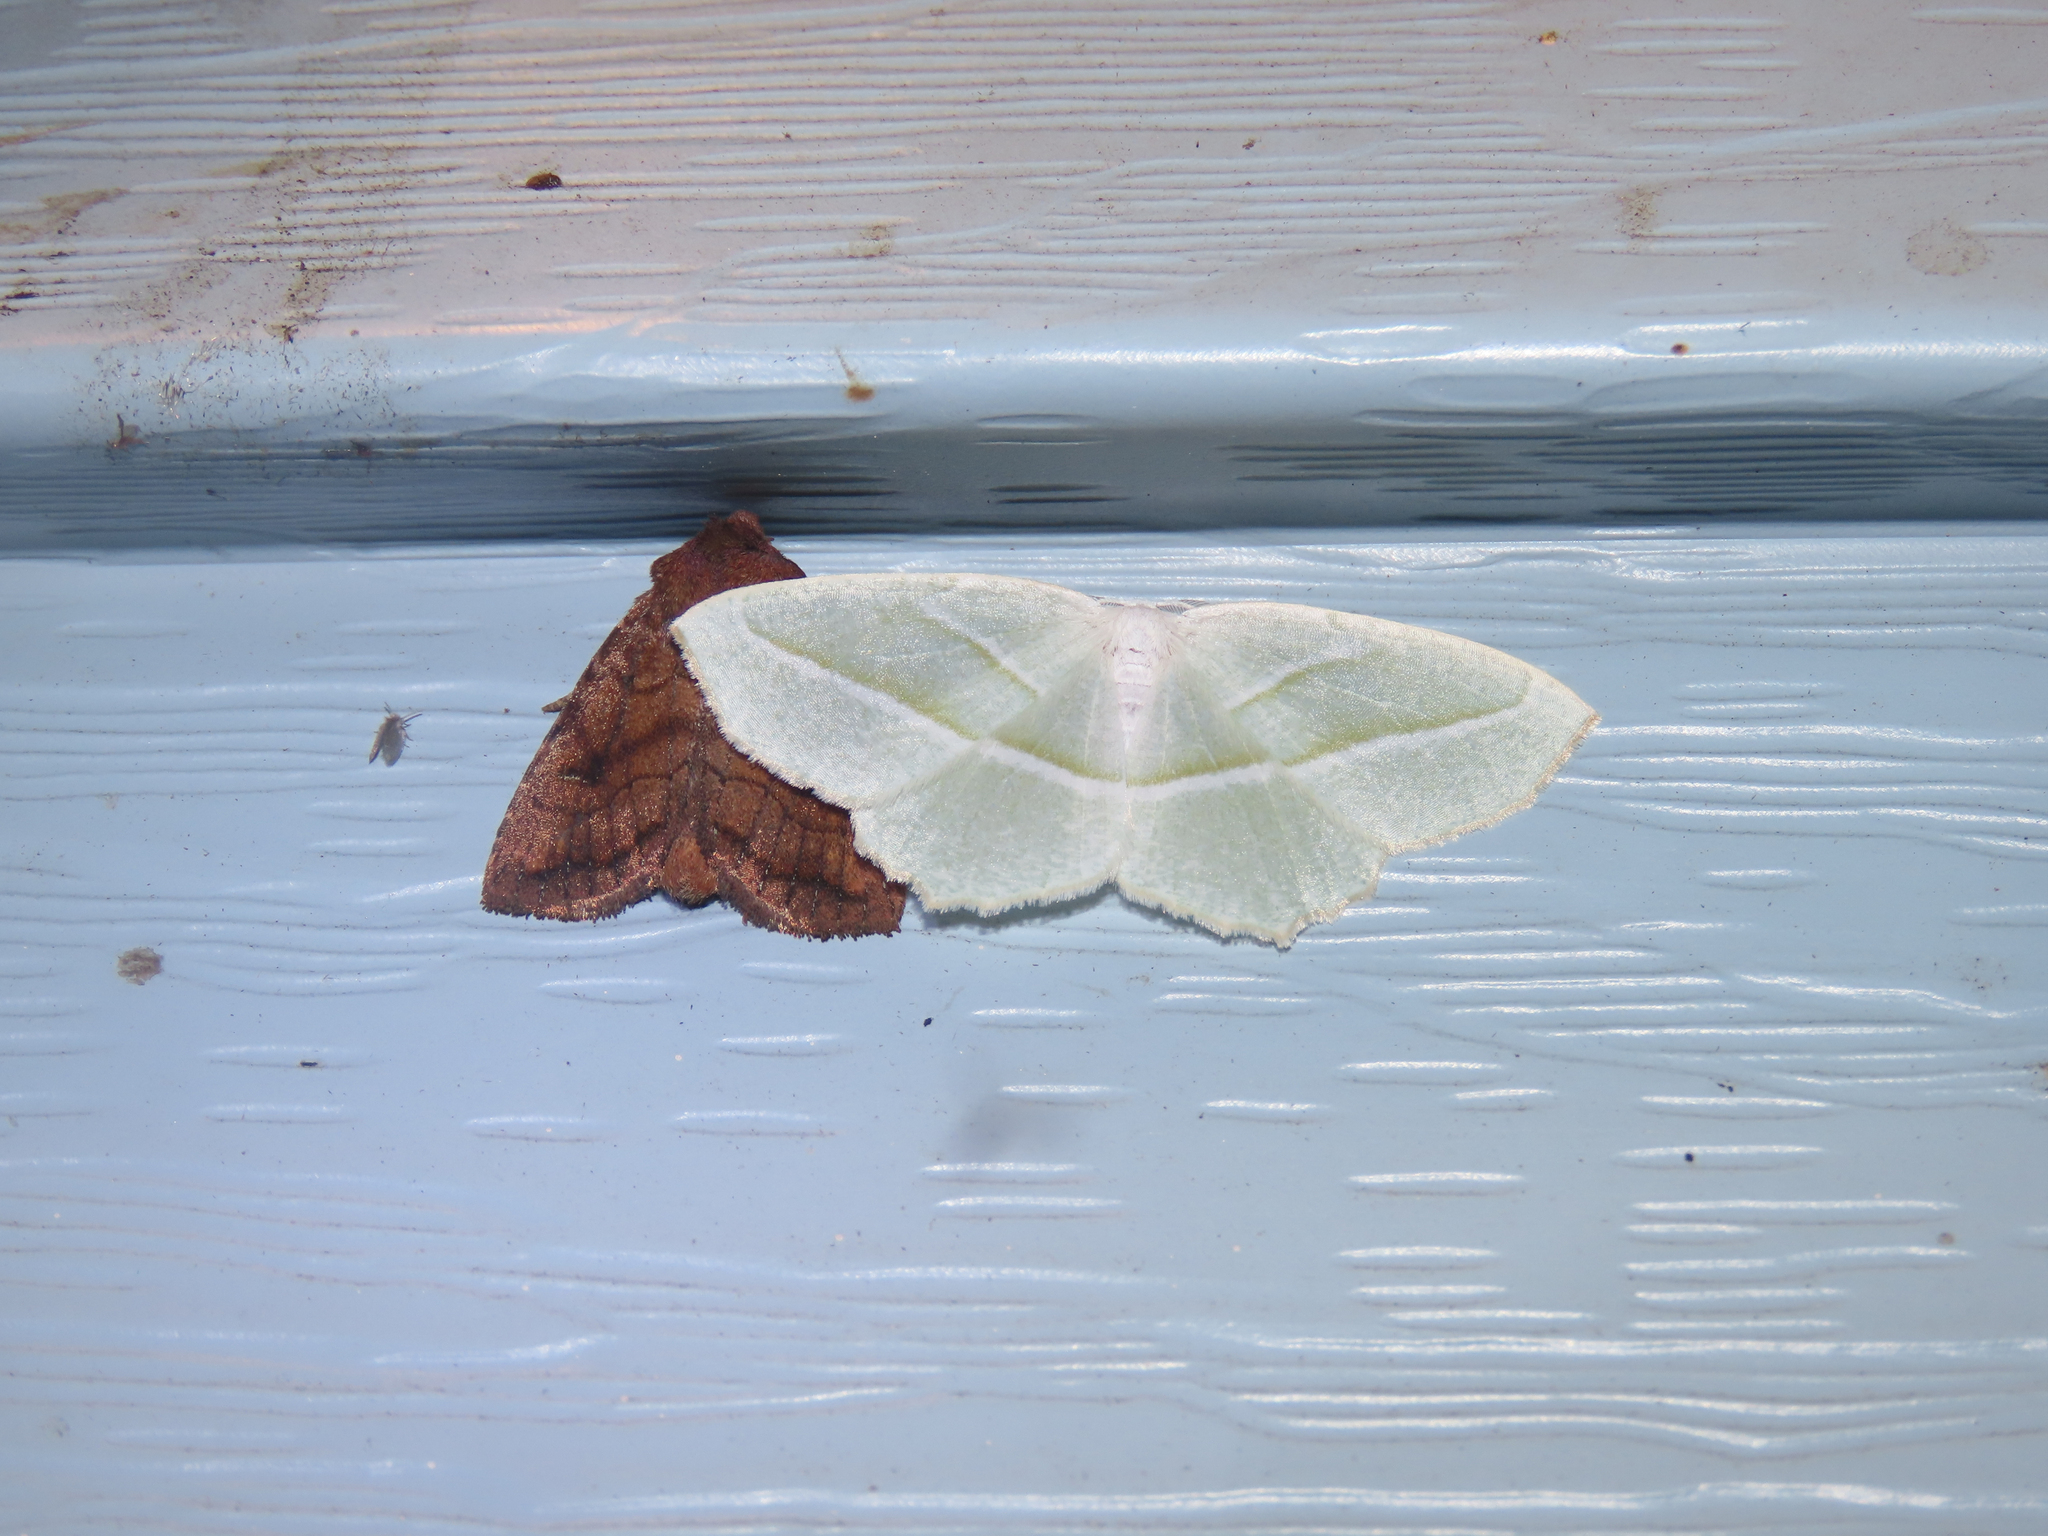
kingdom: Animalia
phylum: Arthropoda
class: Insecta
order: Lepidoptera
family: Geometridae
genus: Campaea
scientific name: Campaea perlata
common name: Fringed looper
